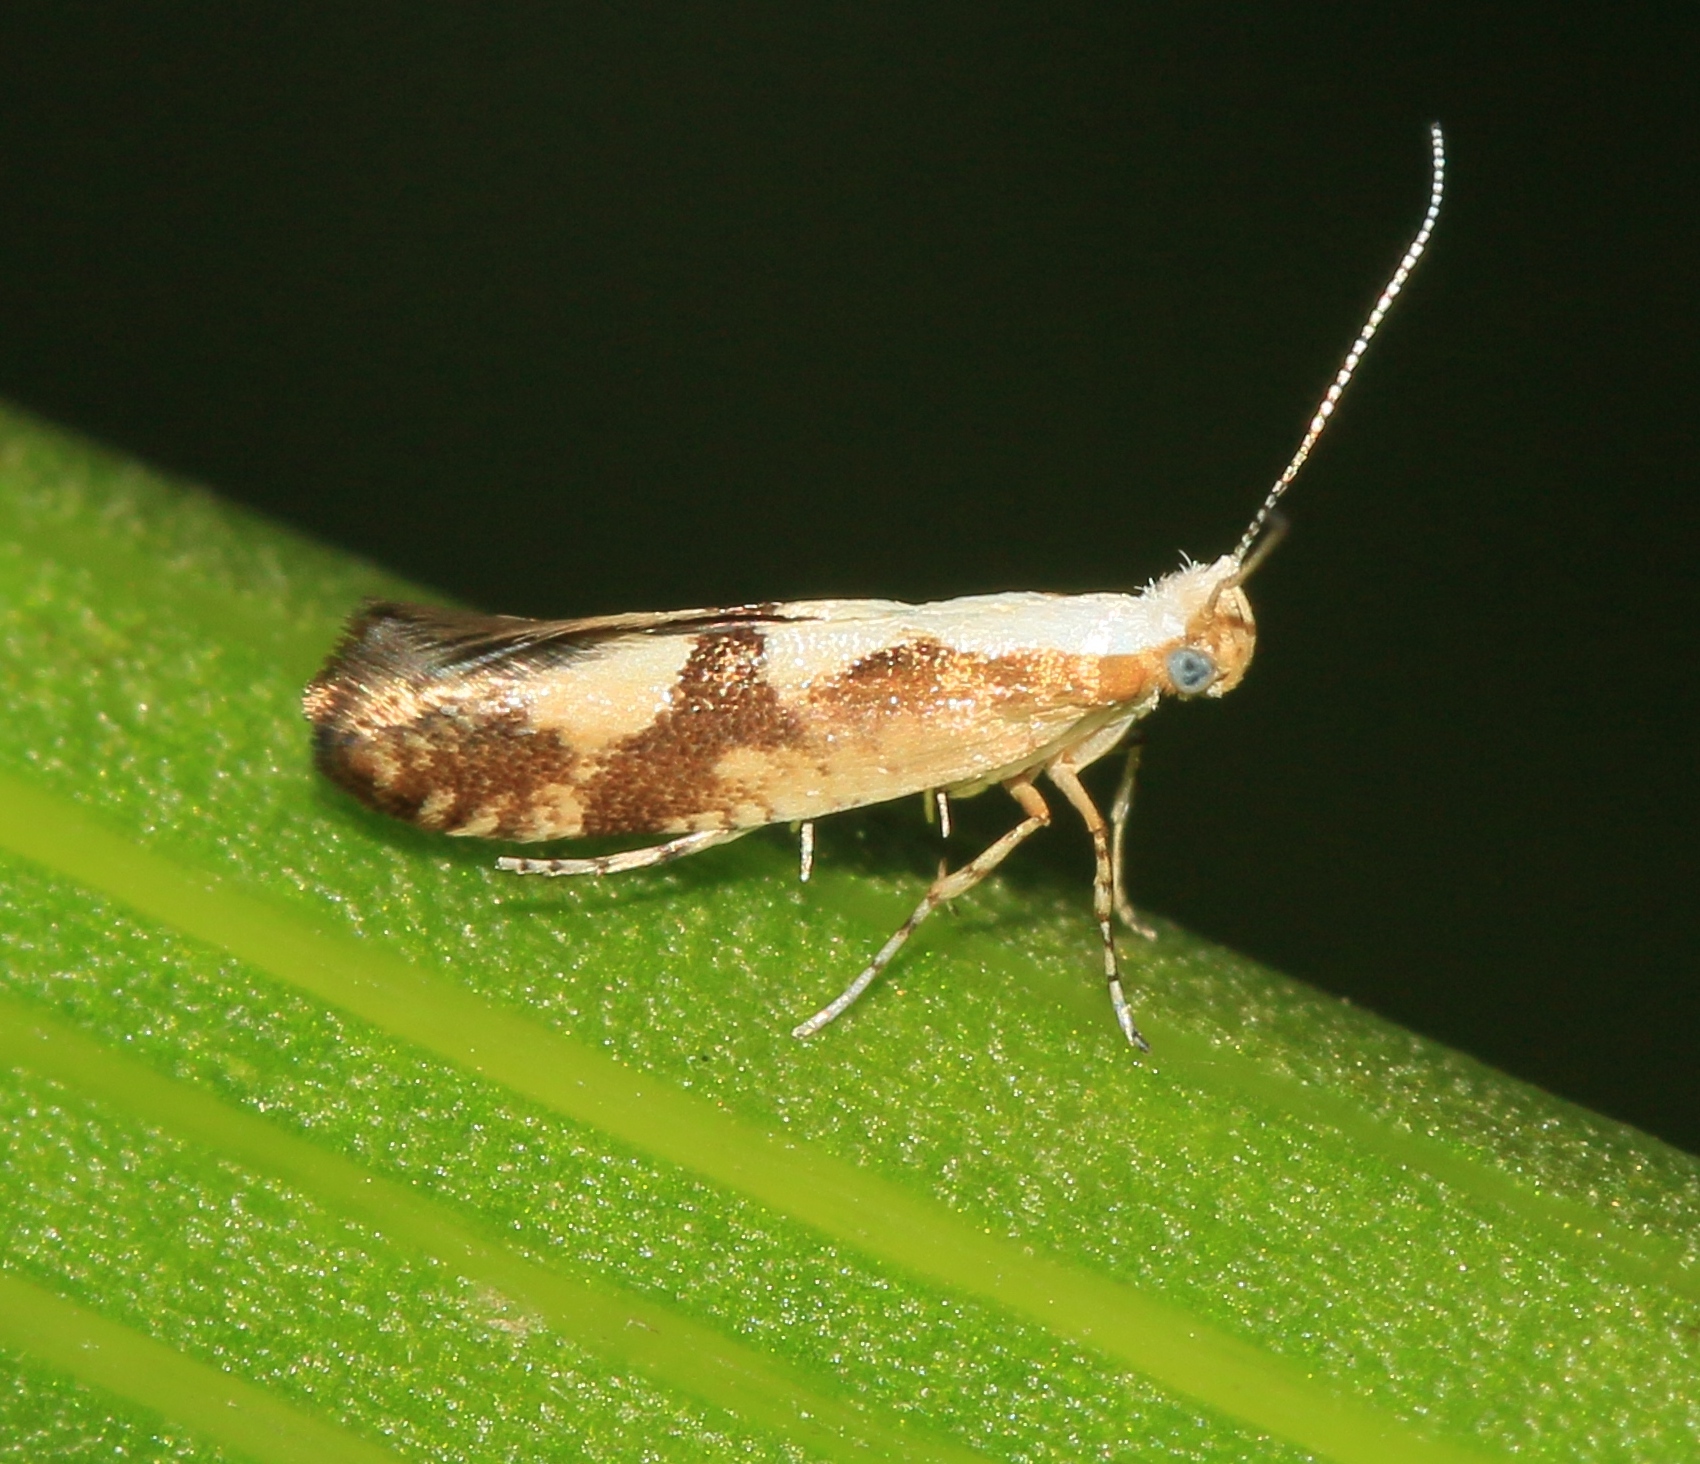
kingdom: Animalia
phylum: Arthropoda
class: Insecta
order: Lepidoptera
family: Argyresthiidae
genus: Argyresthia
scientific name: Argyresthia pruniella
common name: Cherry fruit moth
